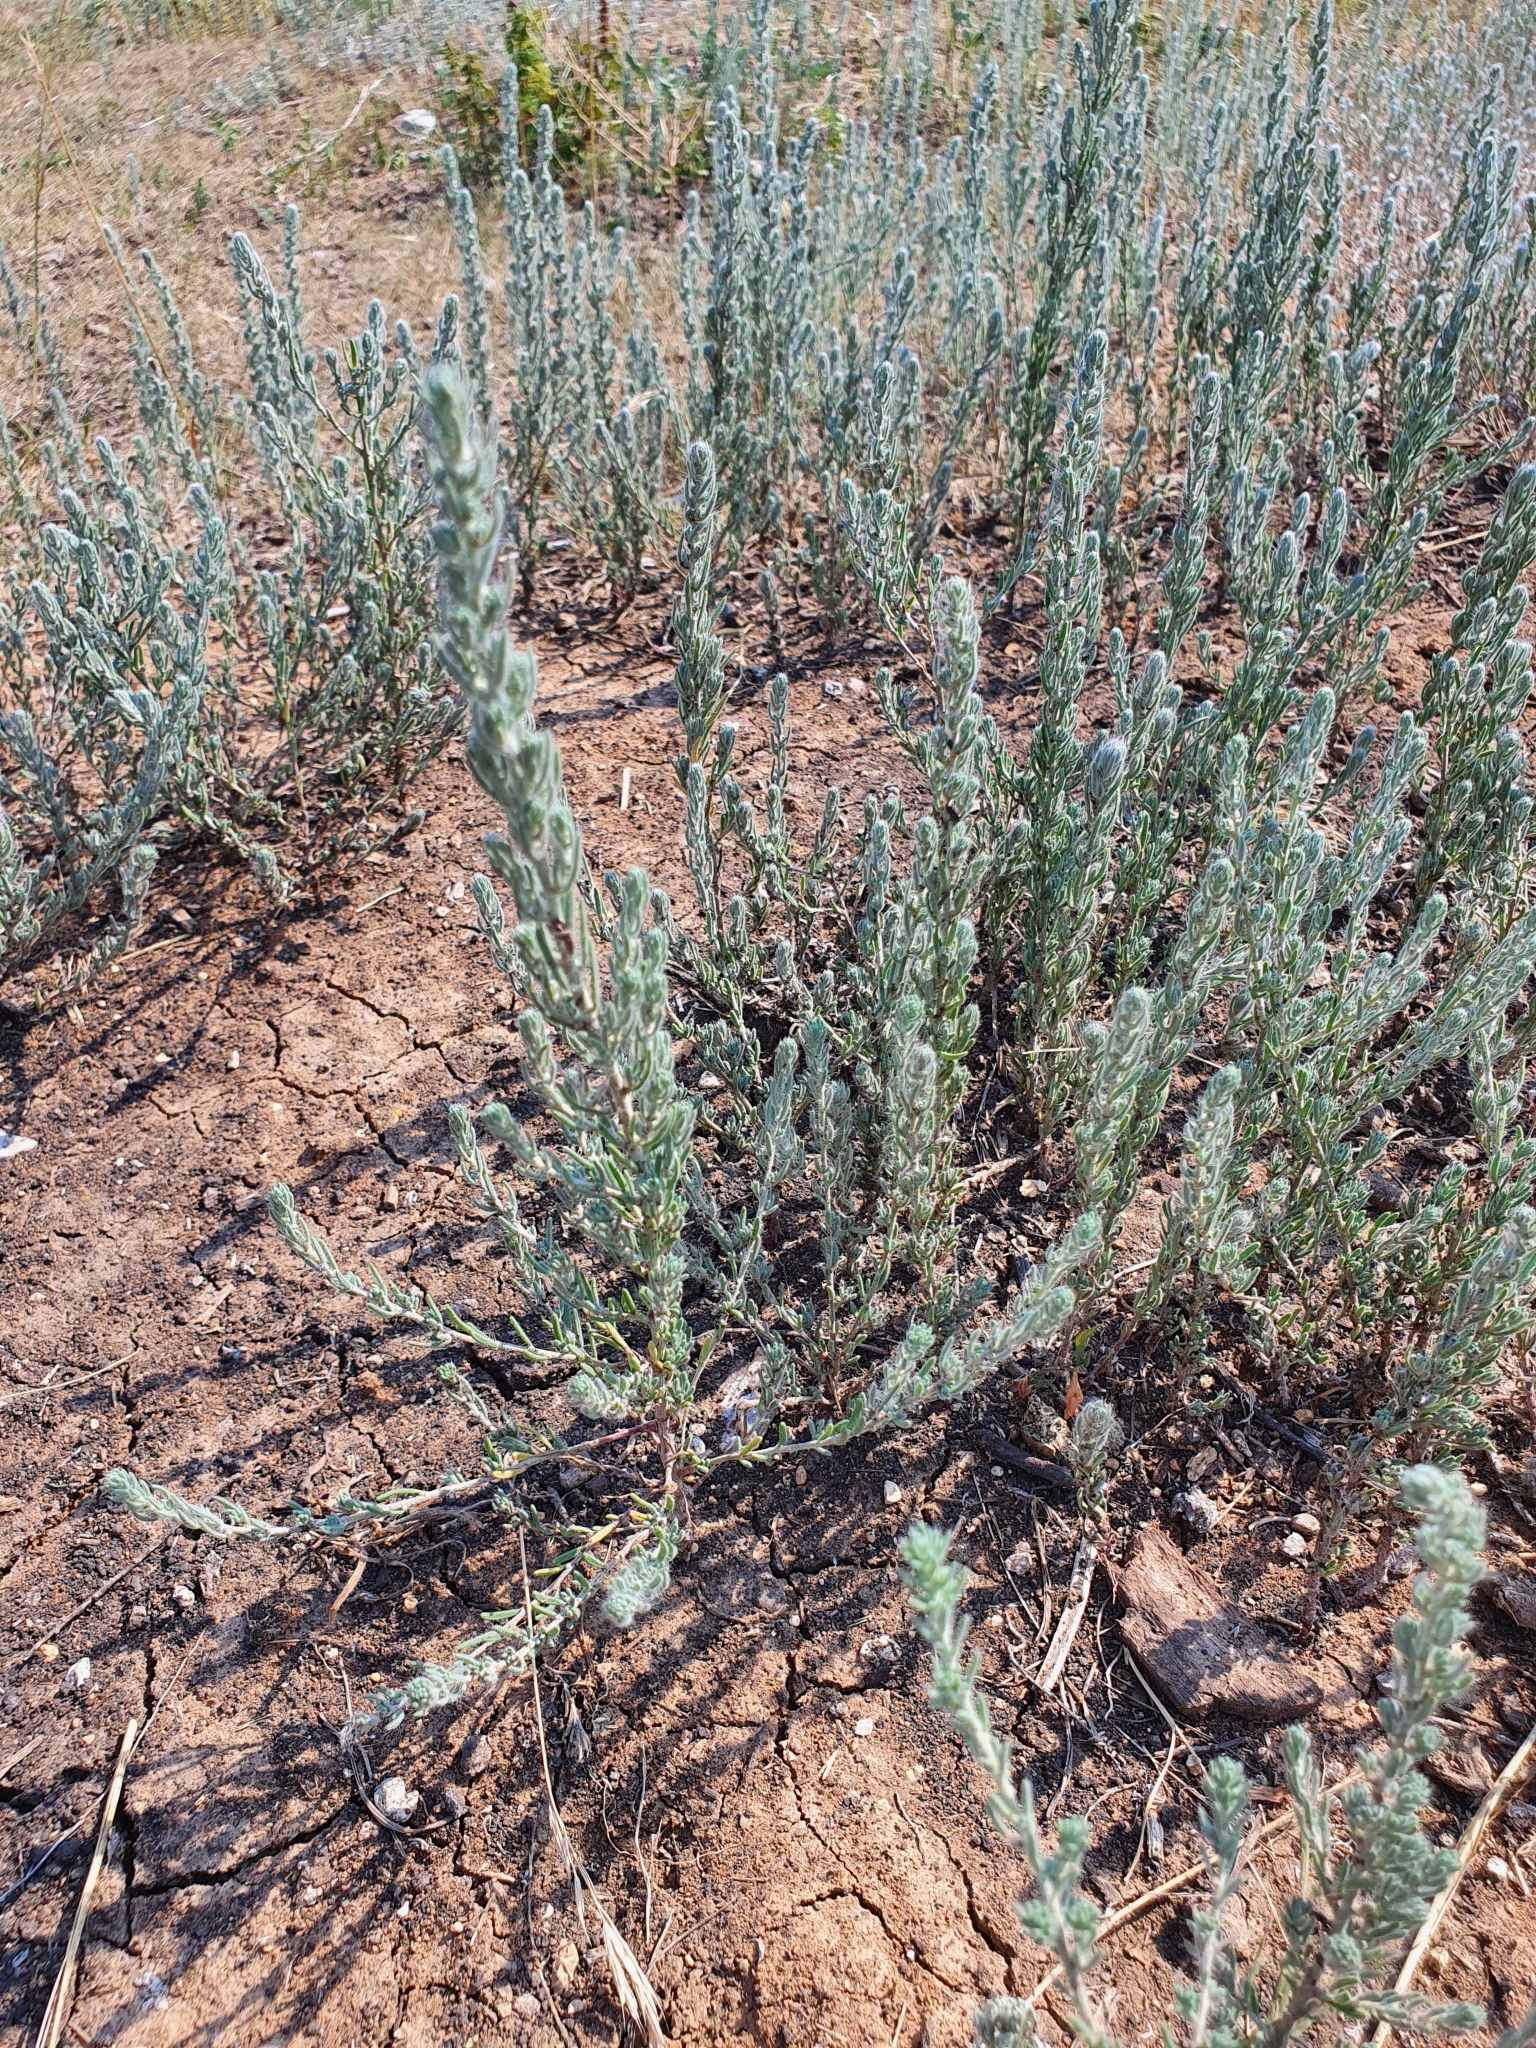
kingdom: Plantae
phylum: Tracheophyta
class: Magnoliopsida
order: Caryophyllales
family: Amaranthaceae
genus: Sedobassia
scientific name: Sedobassia sedoides
